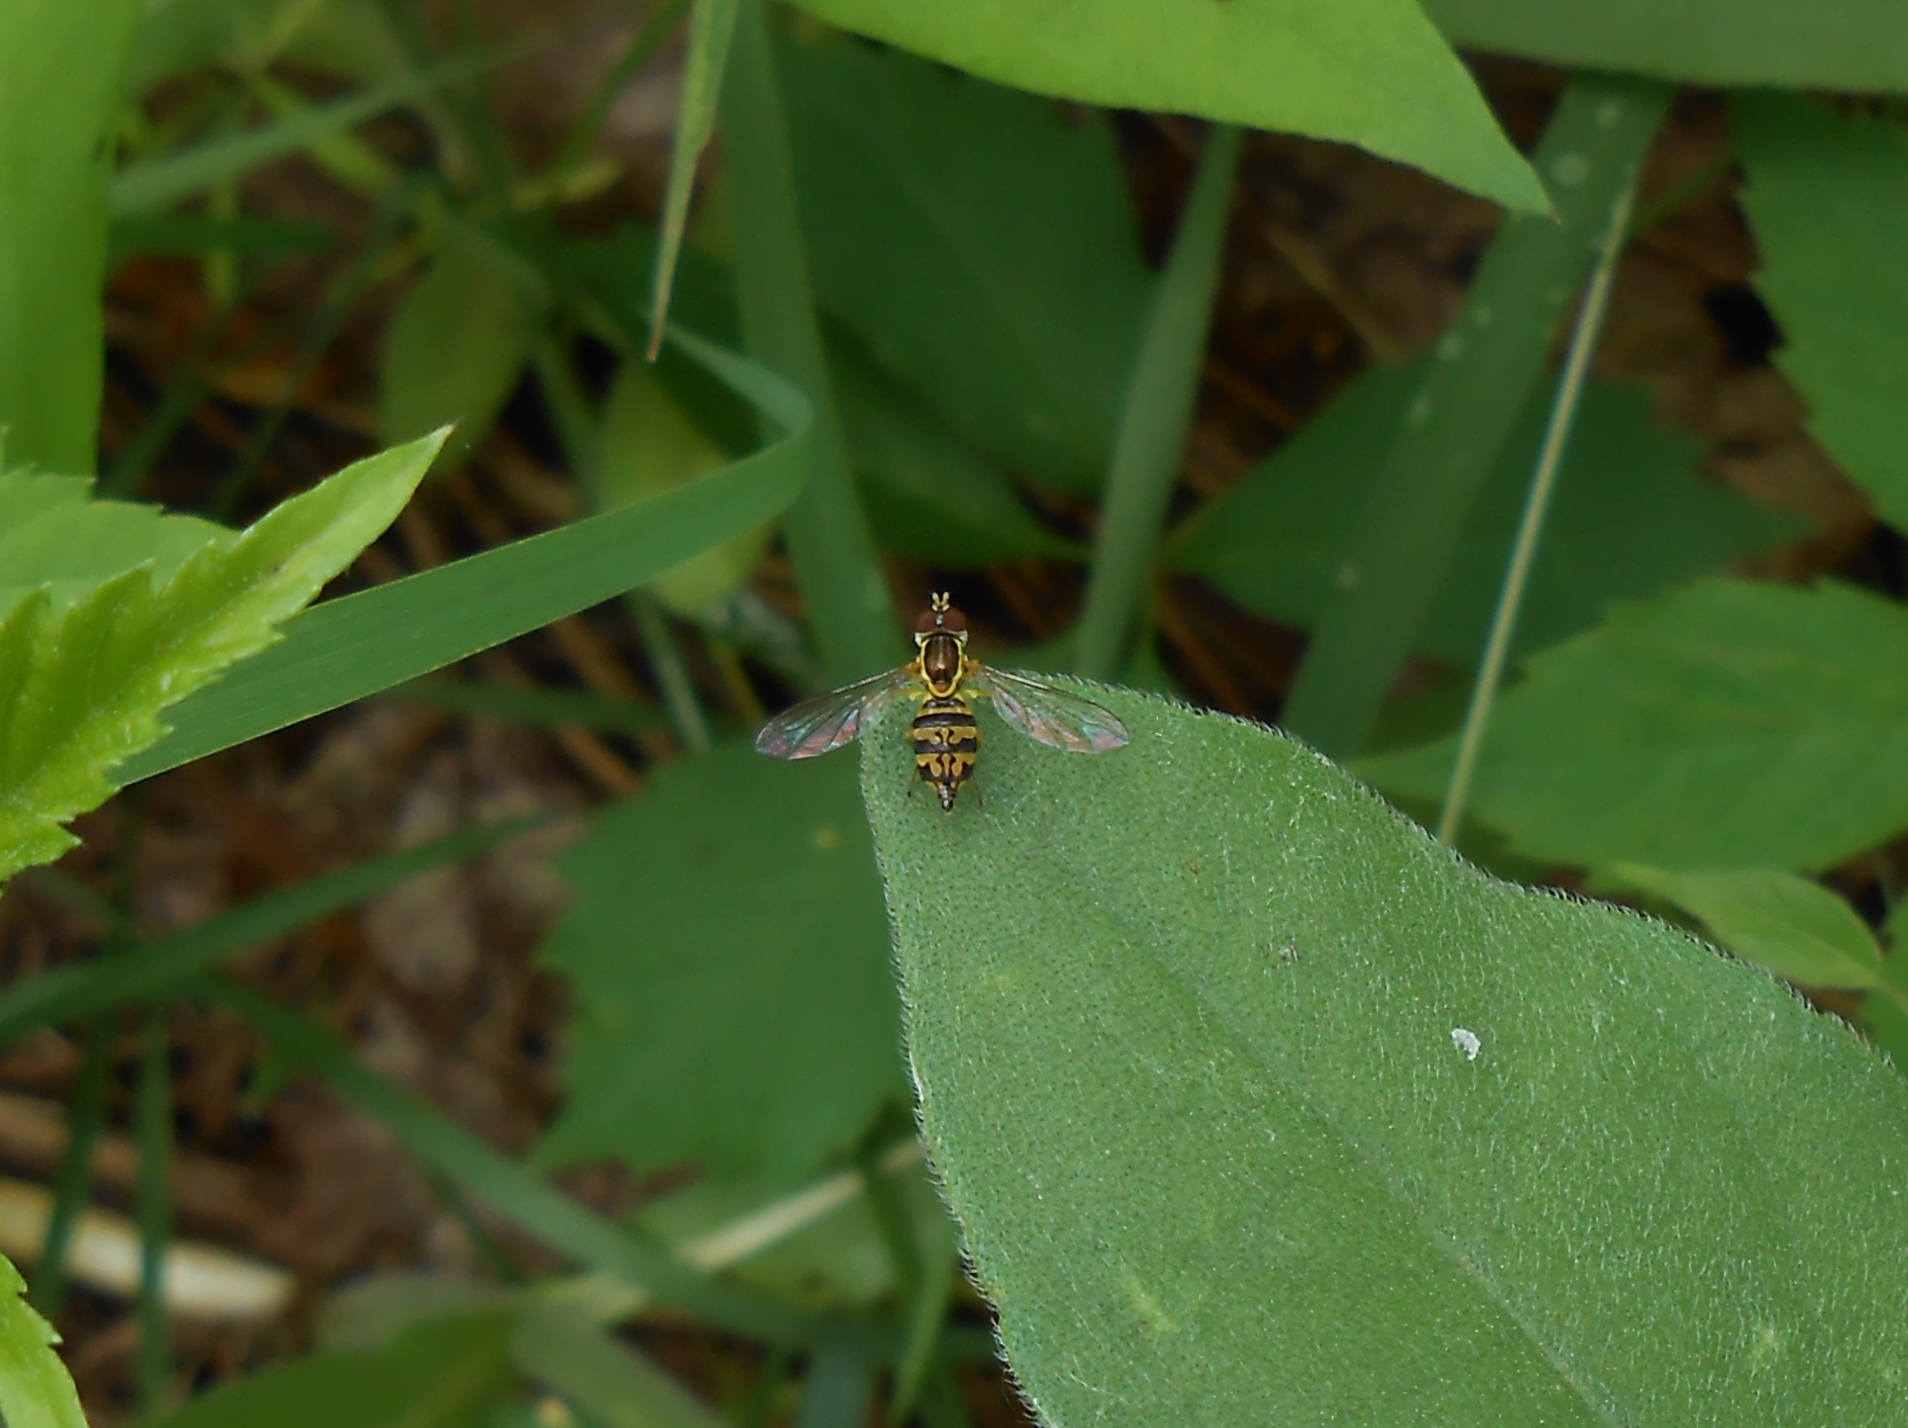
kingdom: Animalia
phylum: Arthropoda
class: Insecta
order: Diptera
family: Syrphidae
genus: Toxomerus
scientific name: Toxomerus geminatus
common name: Eastern calligrapher
